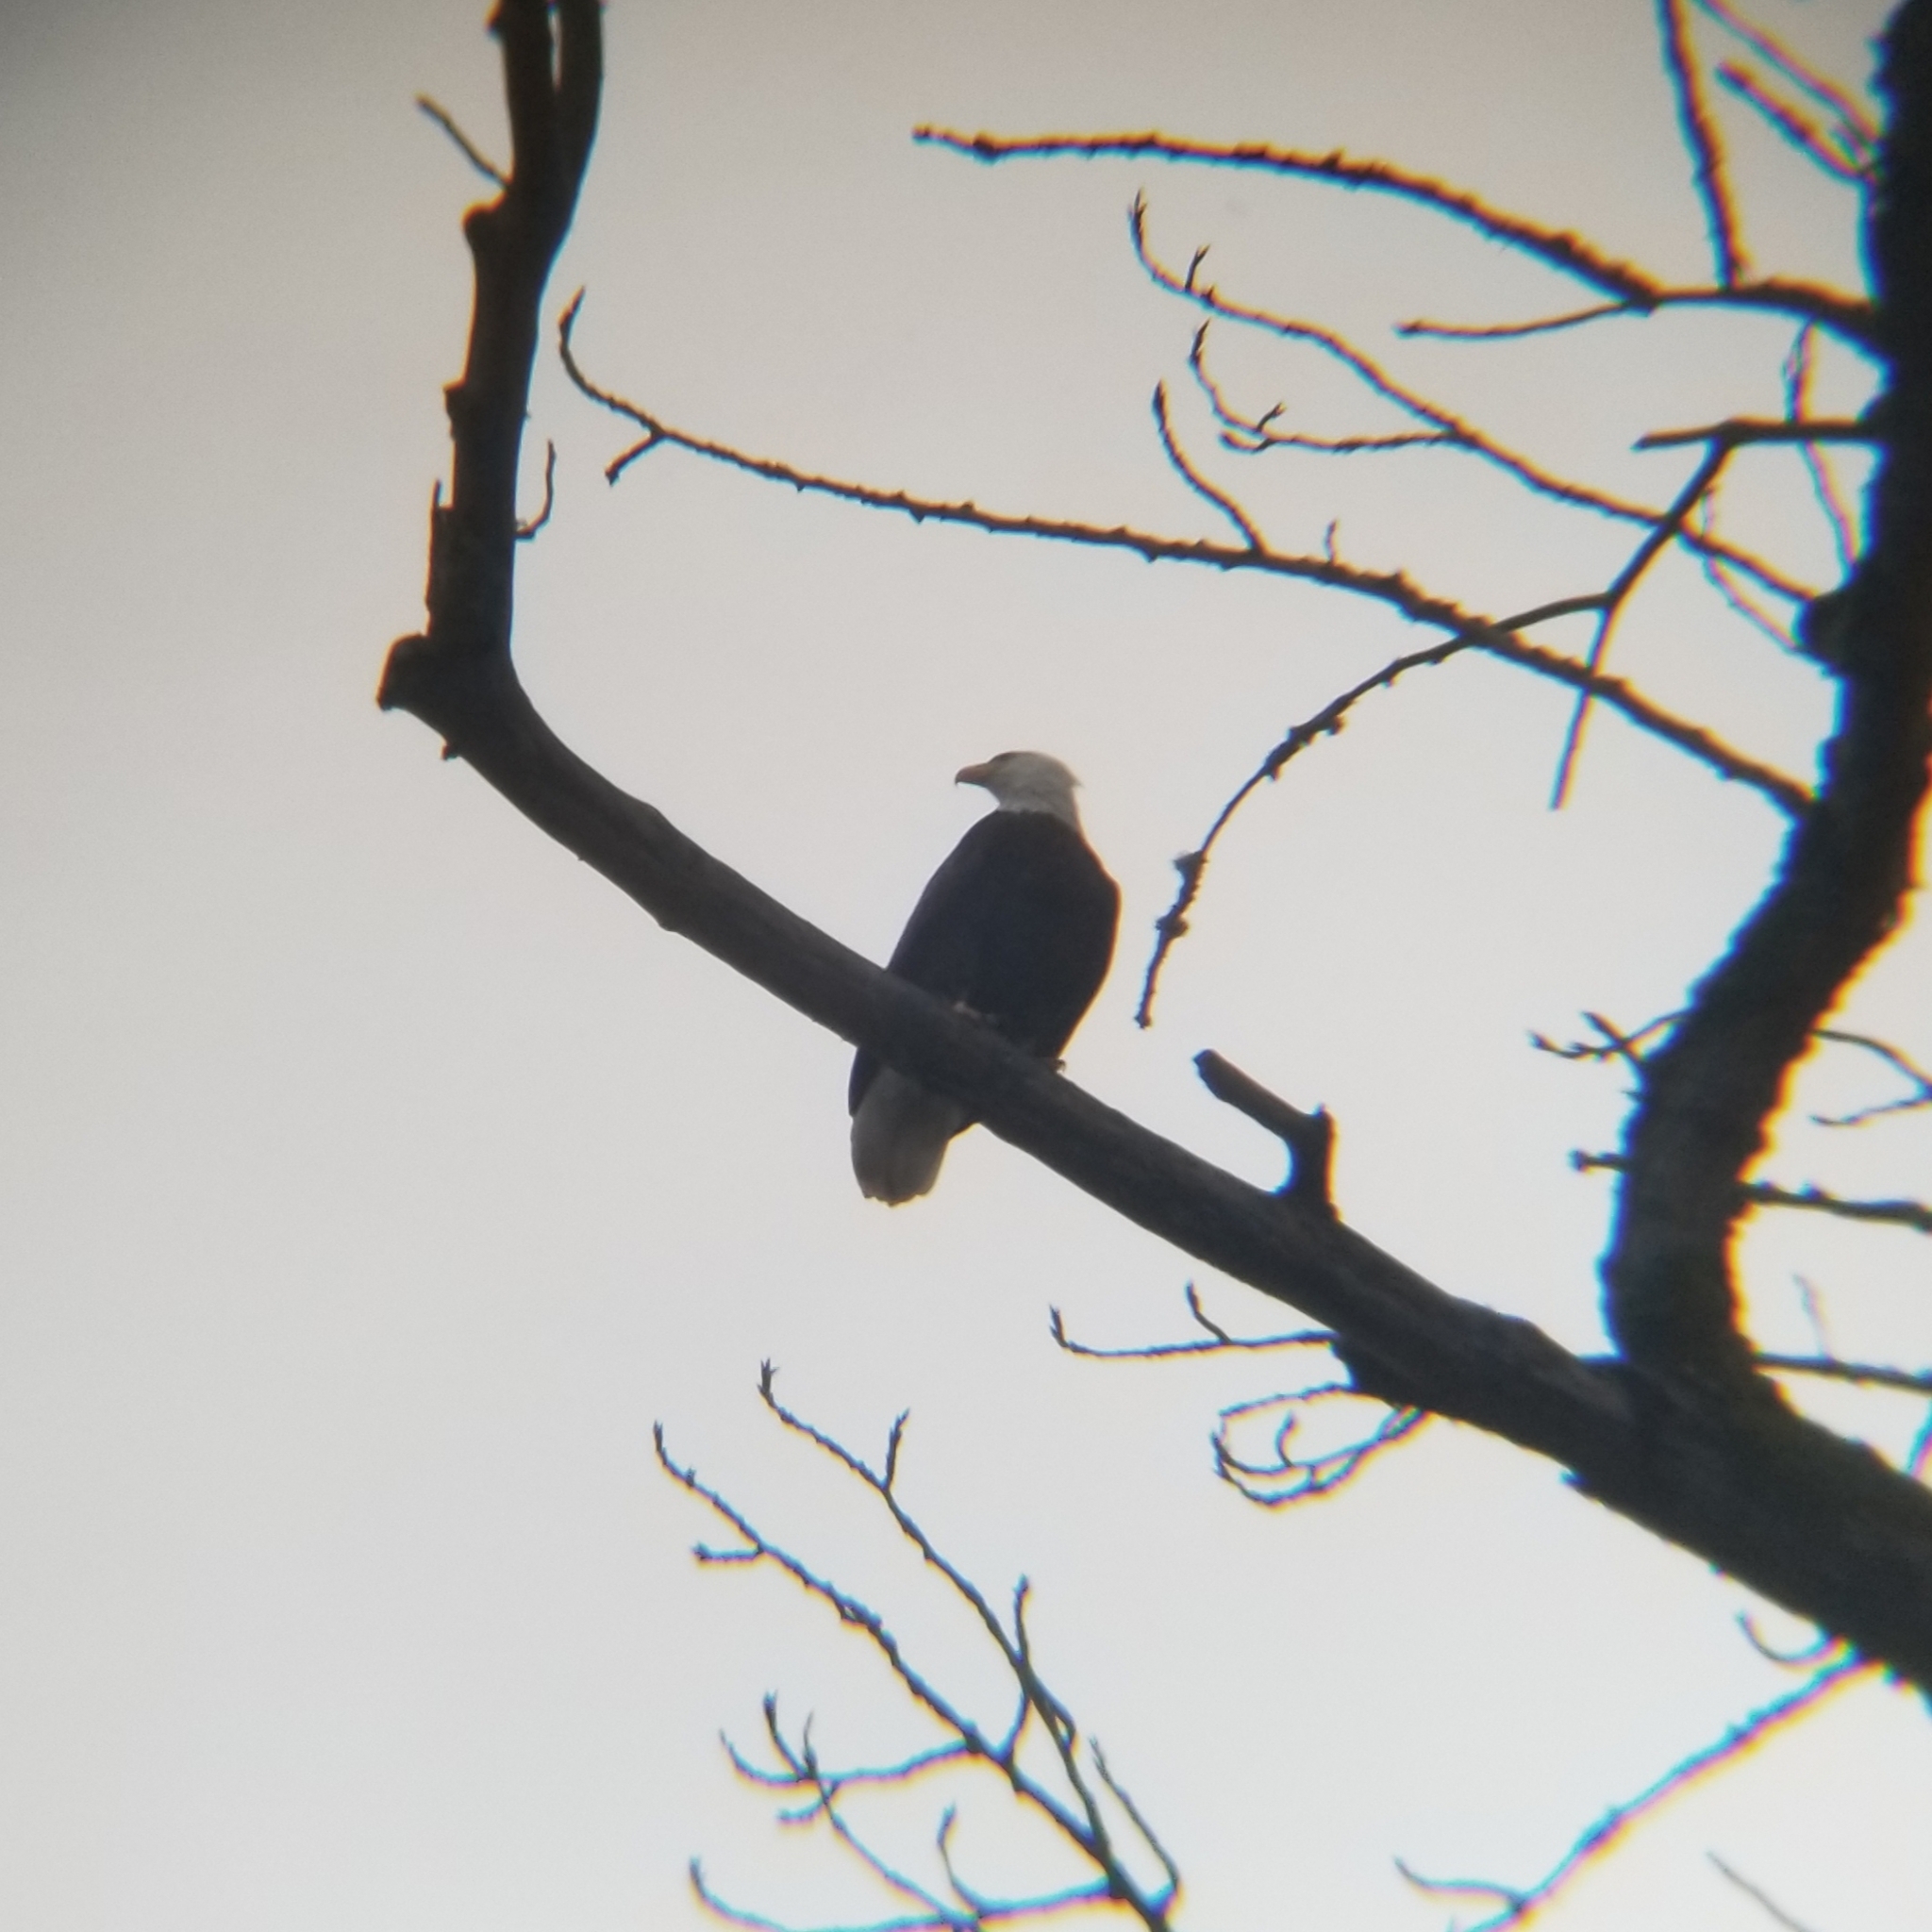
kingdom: Animalia
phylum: Chordata
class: Aves
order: Accipitriformes
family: Accipitridae
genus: Haliaeetus
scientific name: Haliaeetus leucocephalus
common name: Bald eagle
